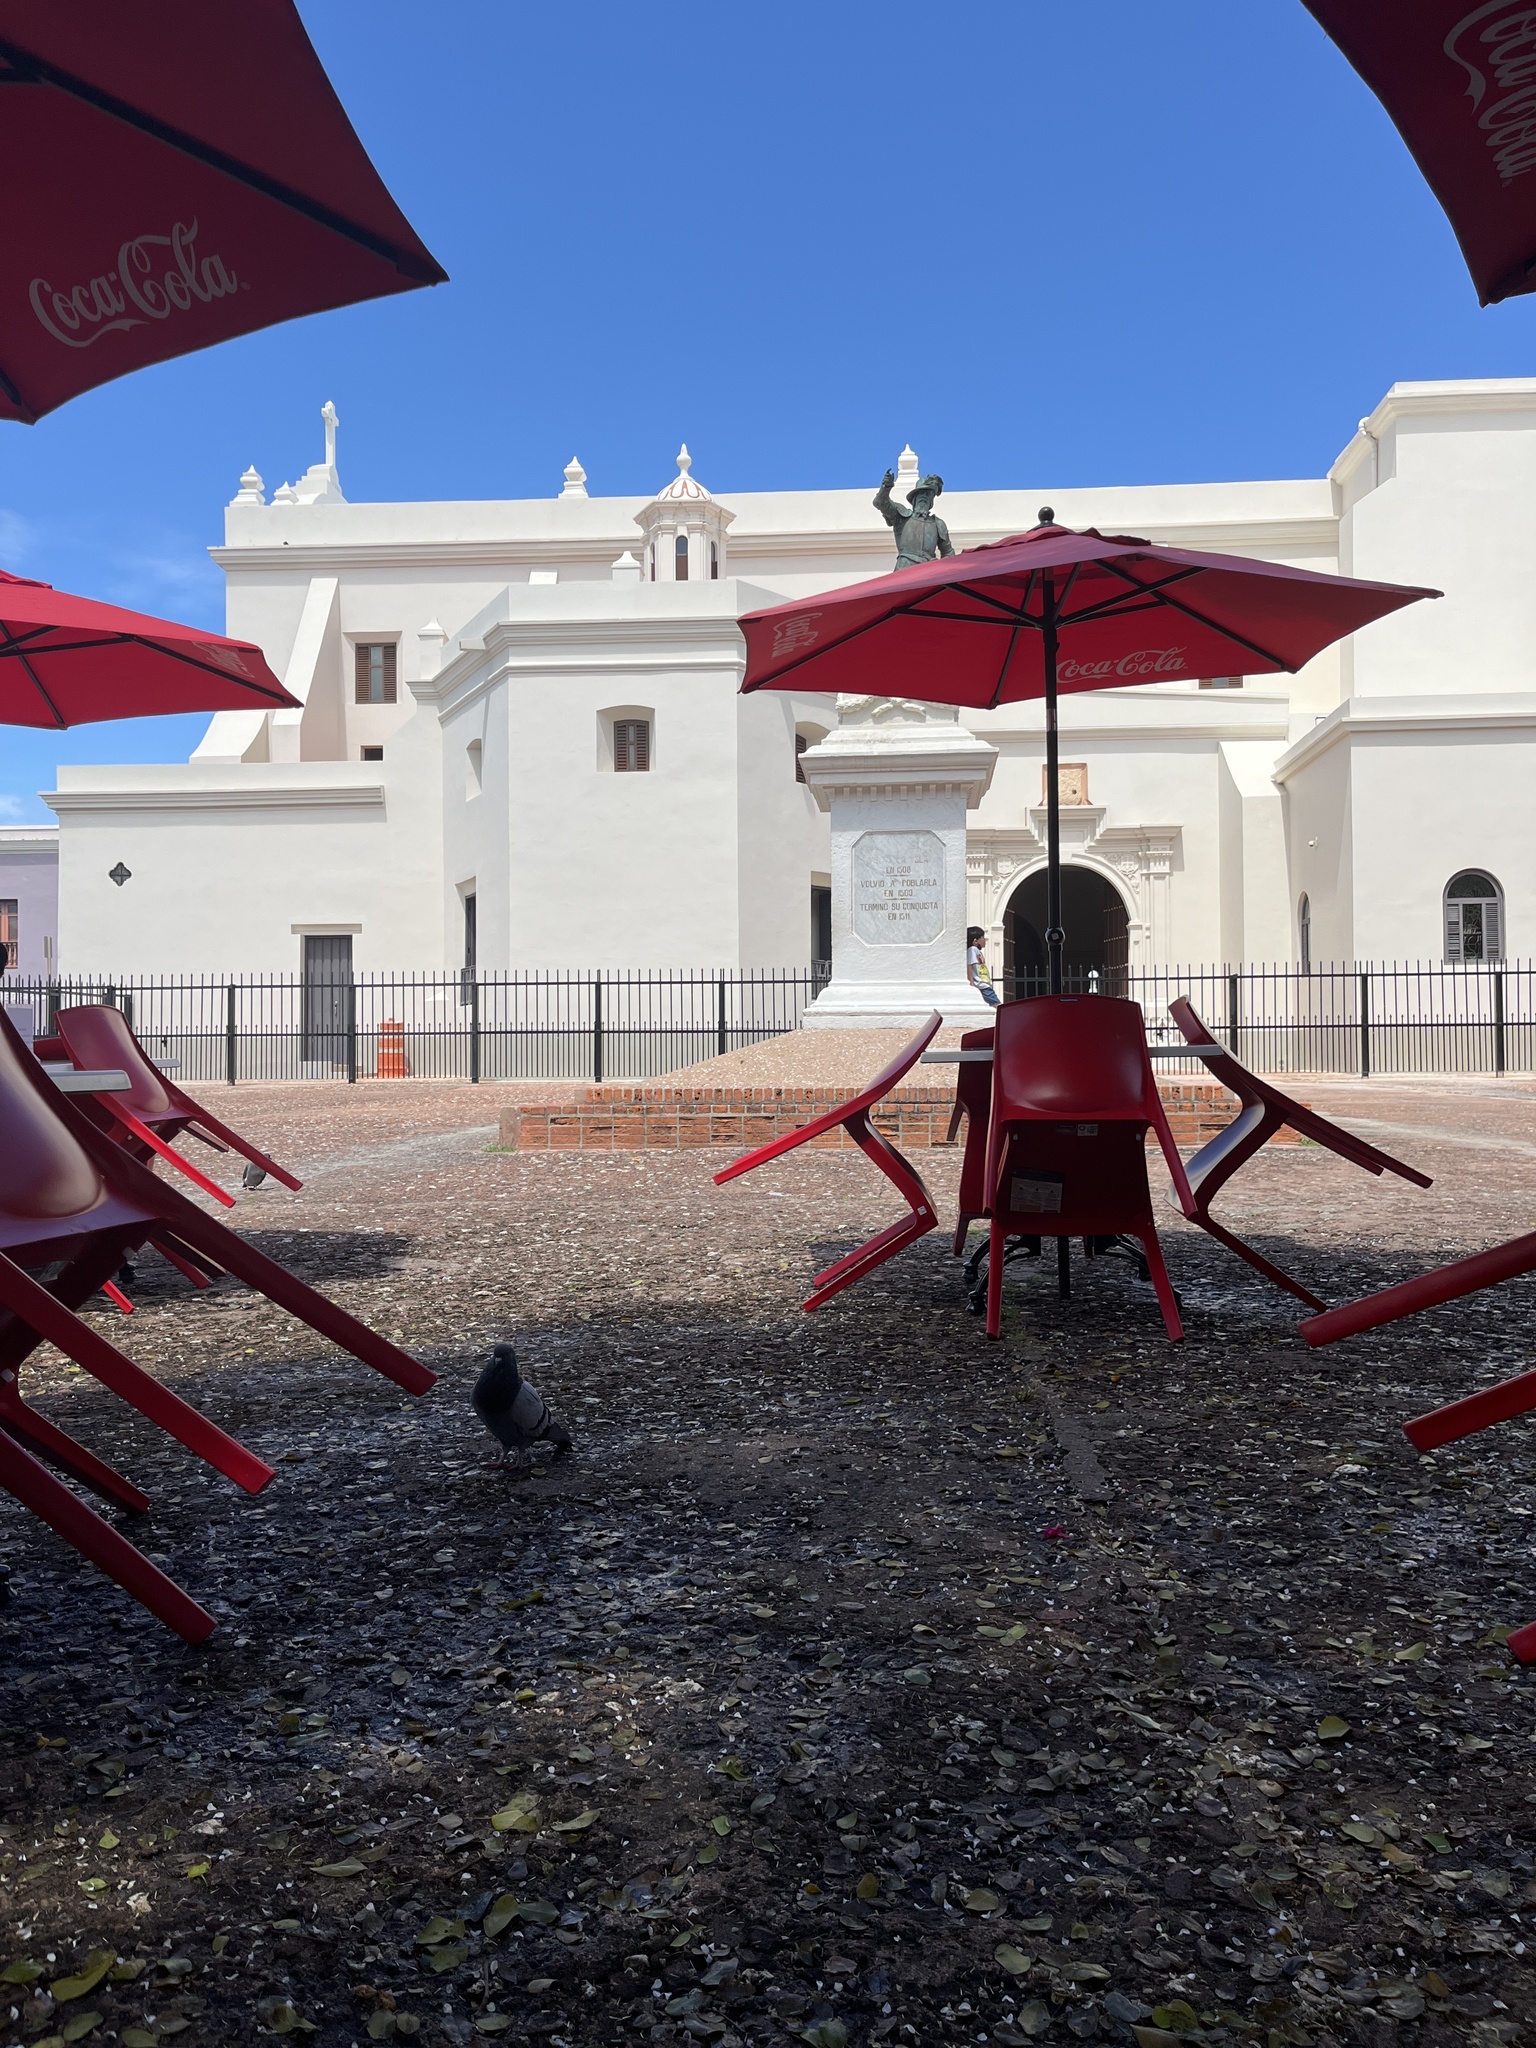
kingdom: Animalia
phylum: Chordata
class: Aves
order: Columbiformes
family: Columbidae
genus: Columba
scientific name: Columba livia
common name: Rock pigeon
